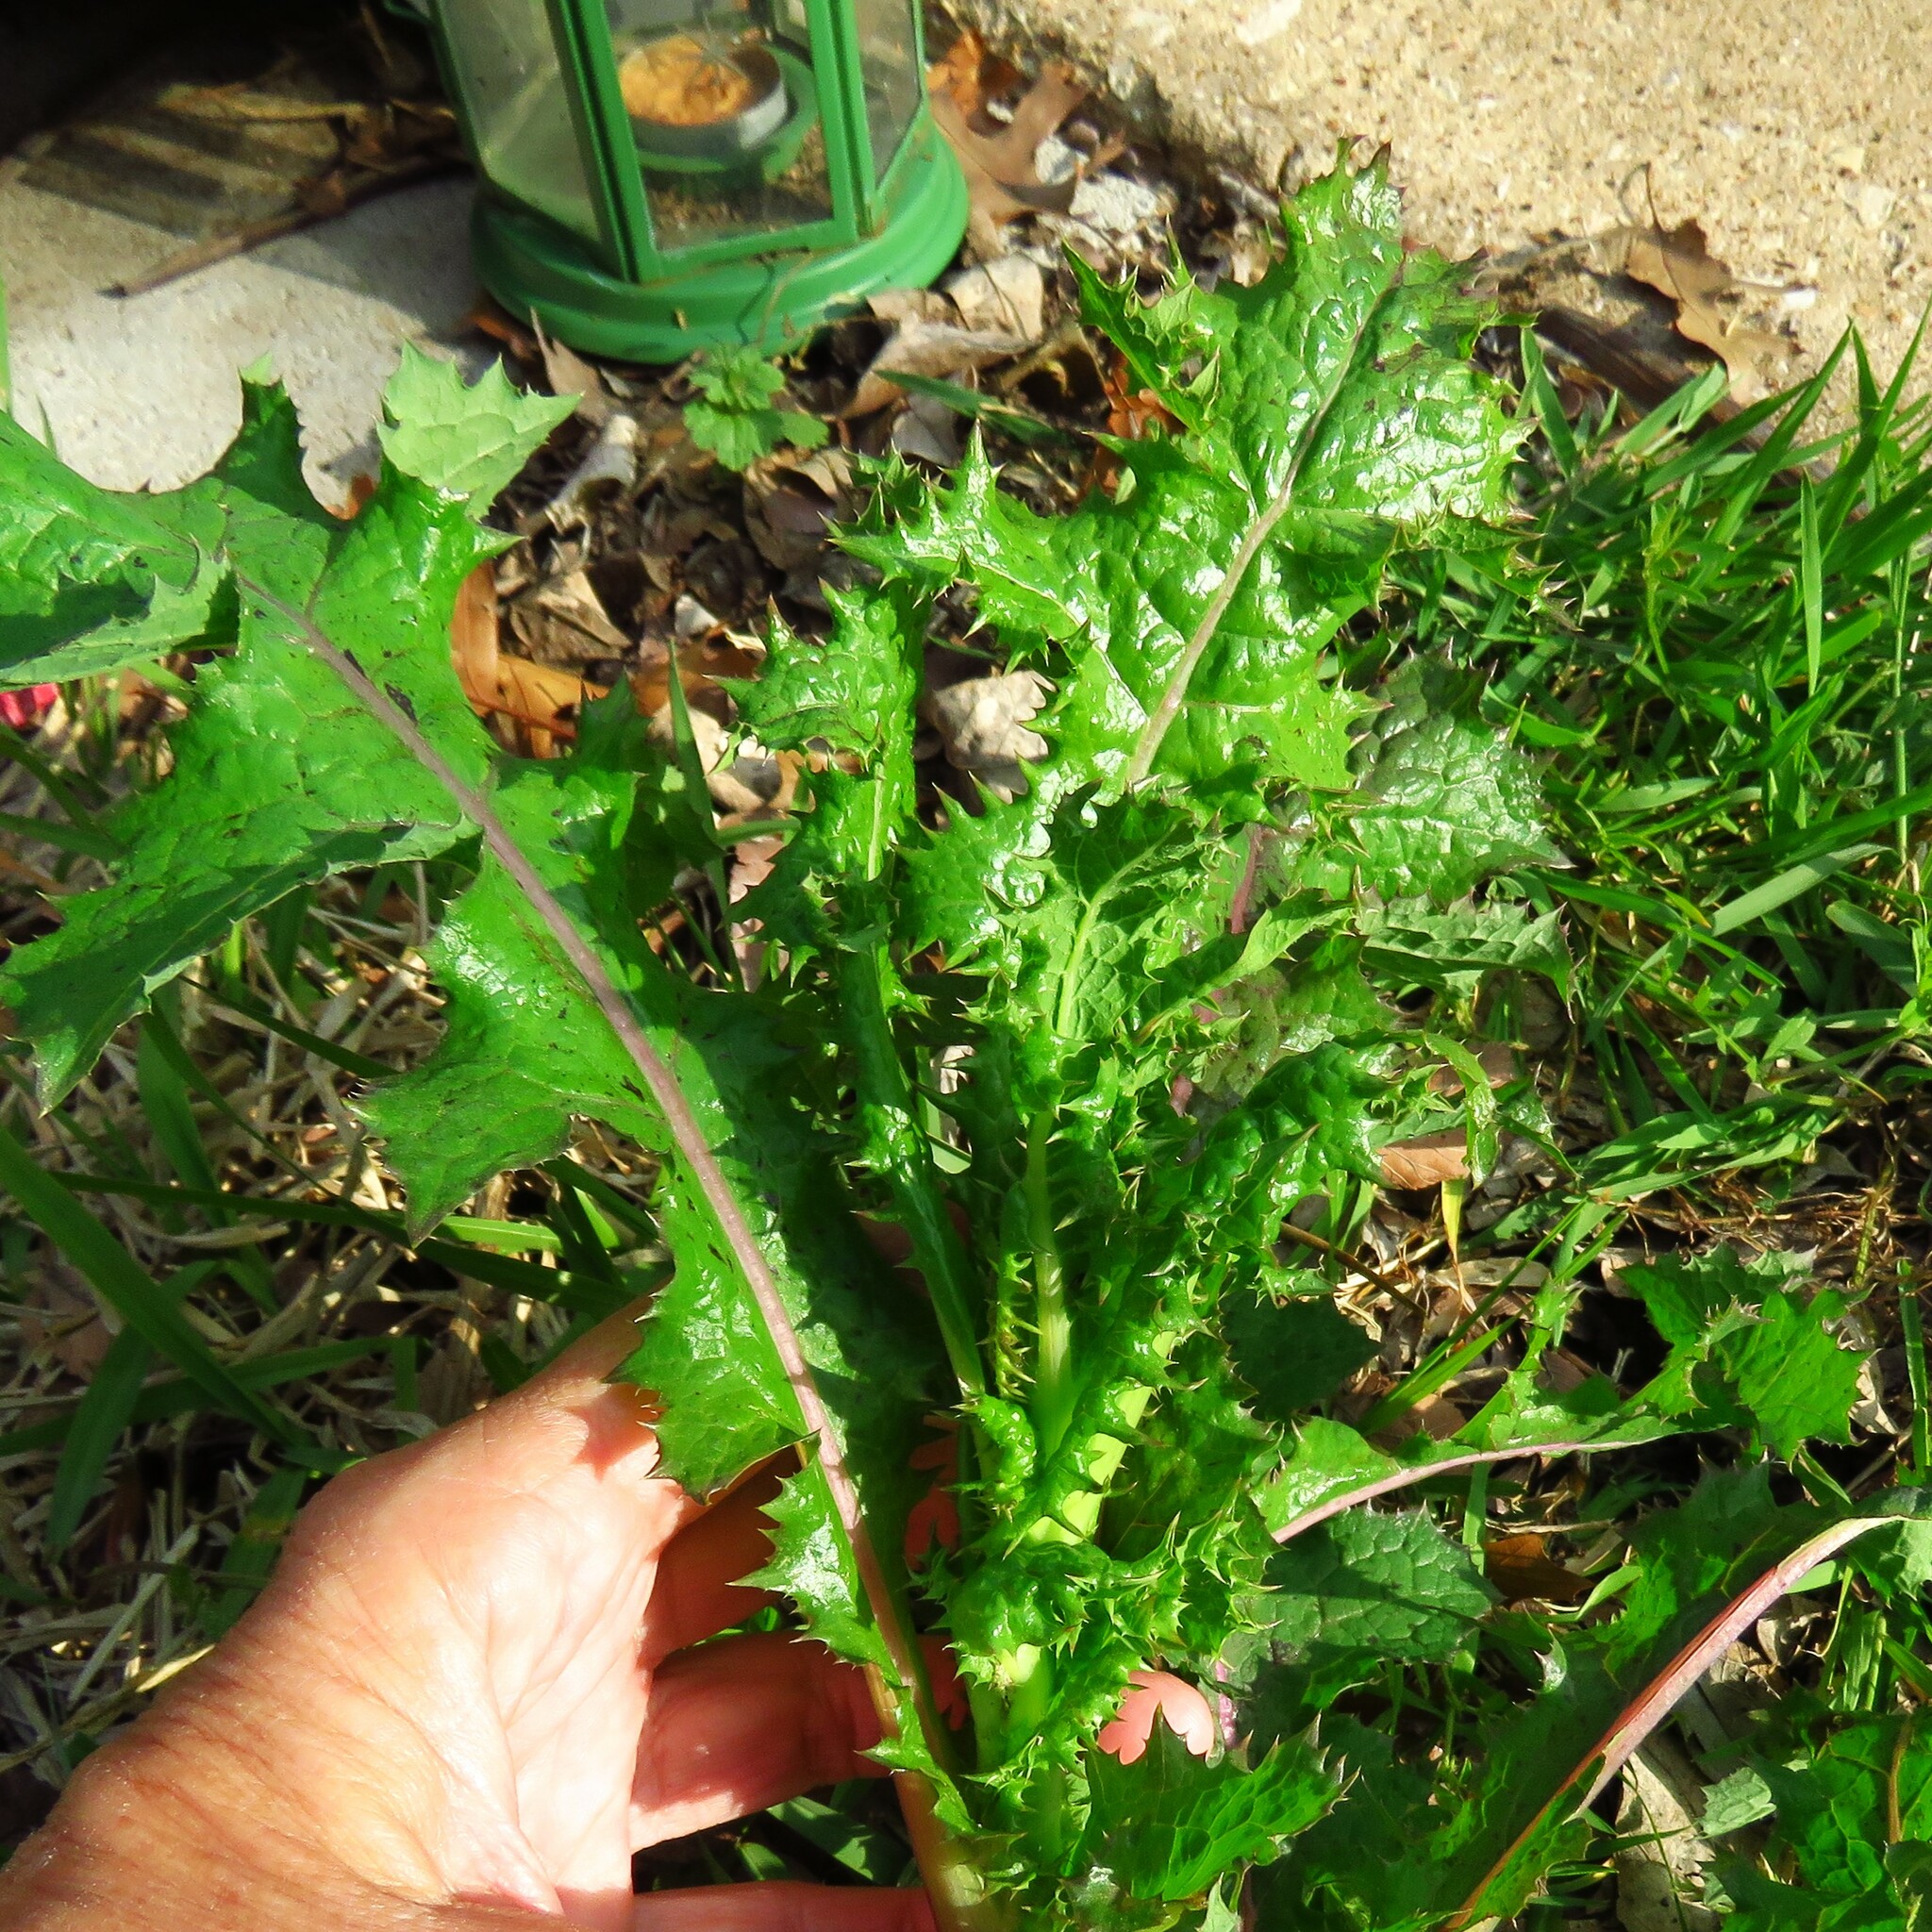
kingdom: Plantae
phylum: Tracheophyta
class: Magnoliopsida
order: Asterales
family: Asteraceae
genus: Sonchus
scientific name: Sonchus asper
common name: Prickly sow-thistle
